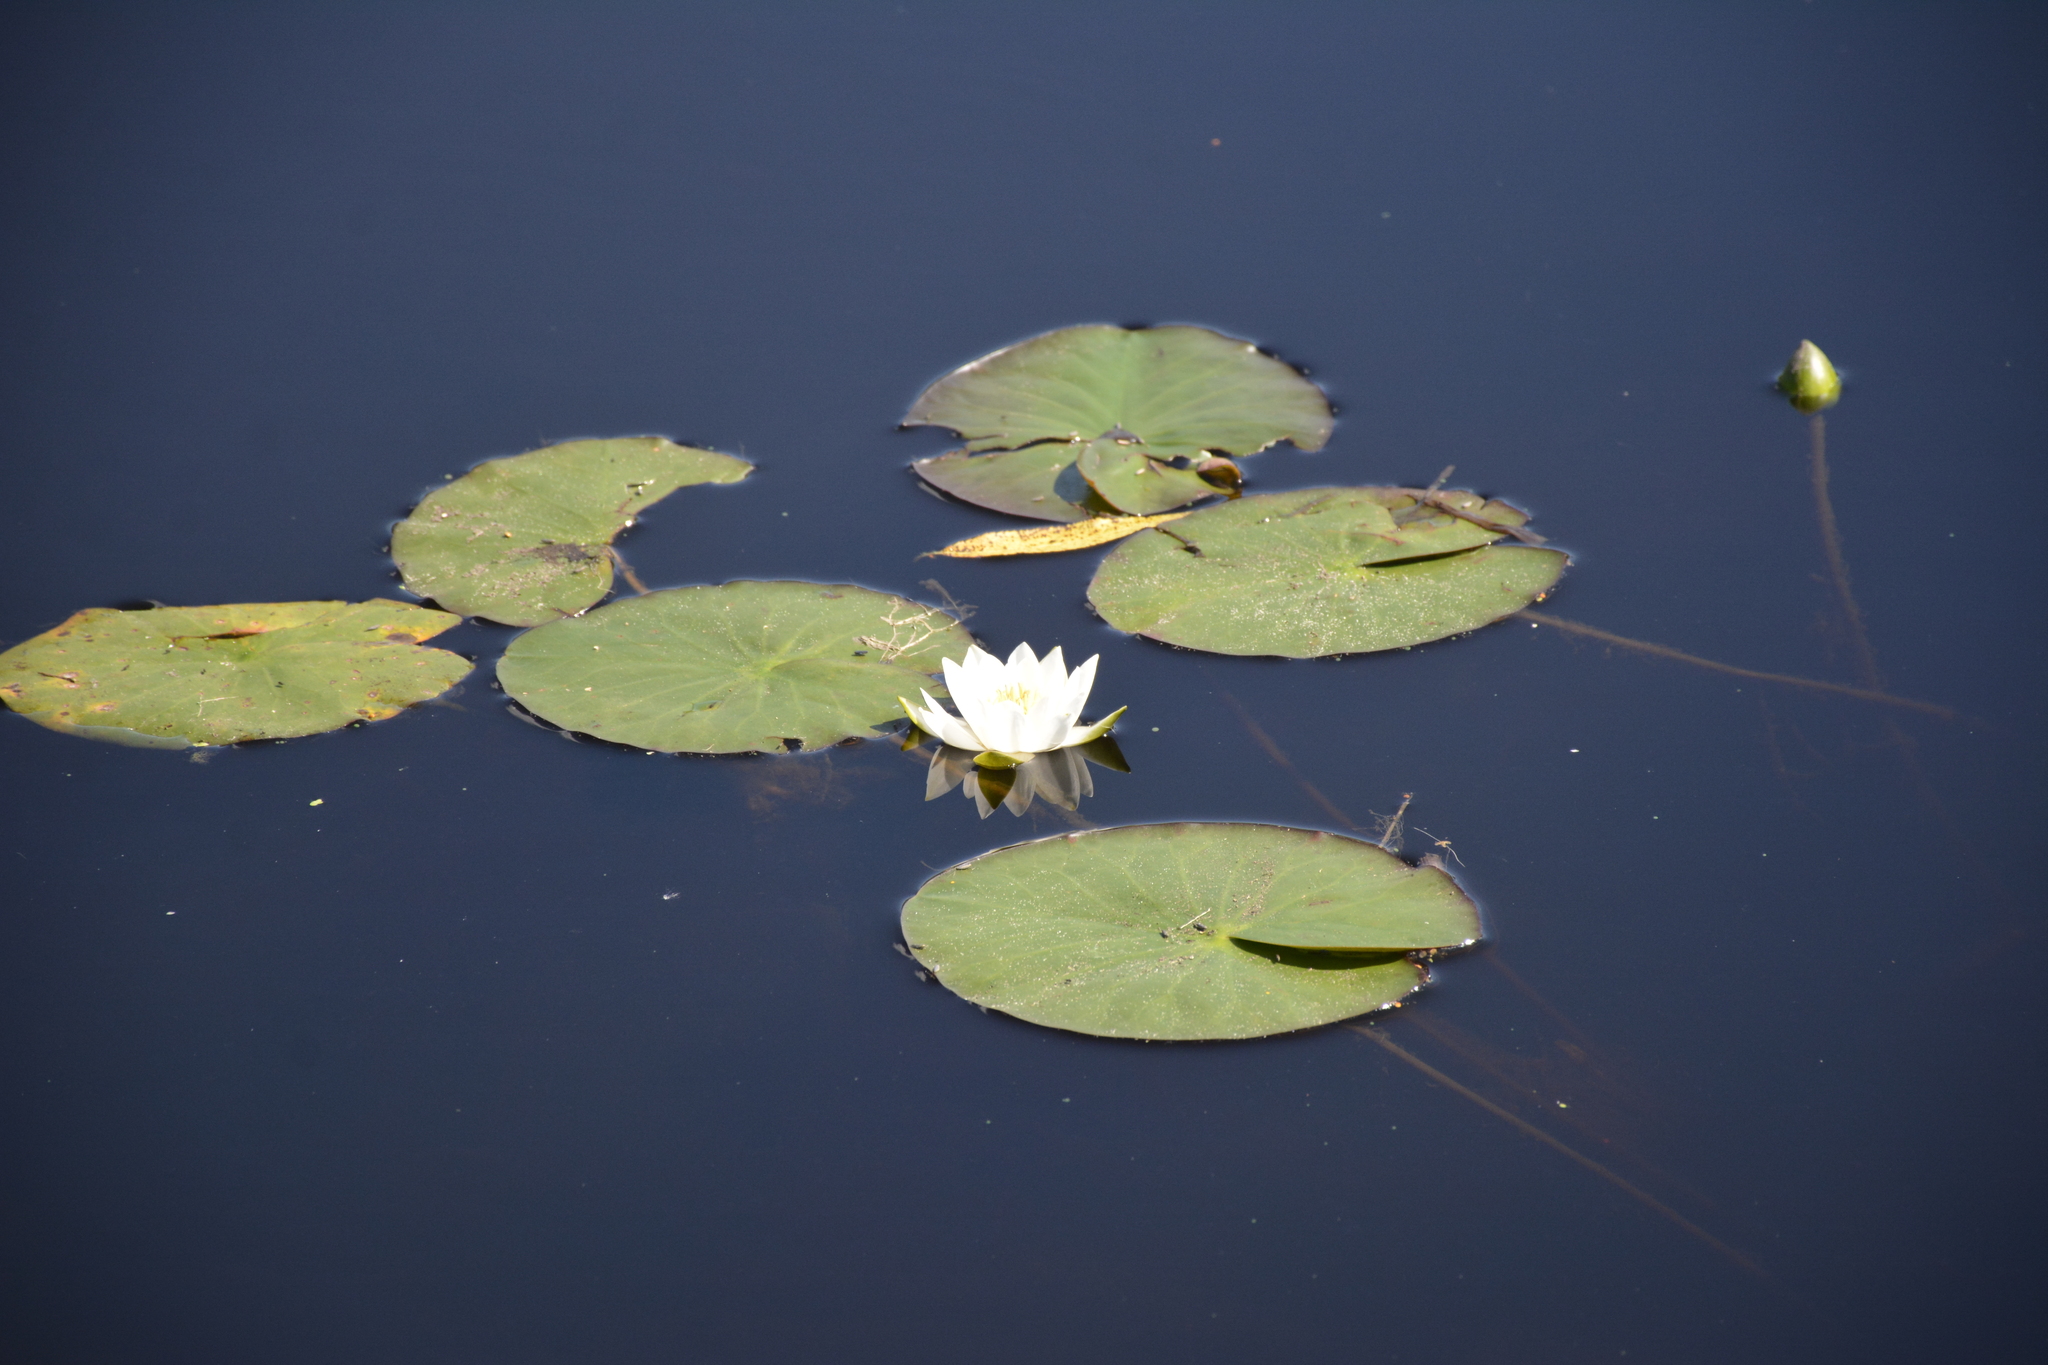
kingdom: Plantae
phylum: Tracheophyta
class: Magnoliopsida
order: Nymphaeales
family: Nymphaeaceae
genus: Nymphaea
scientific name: Nymphaea candida
